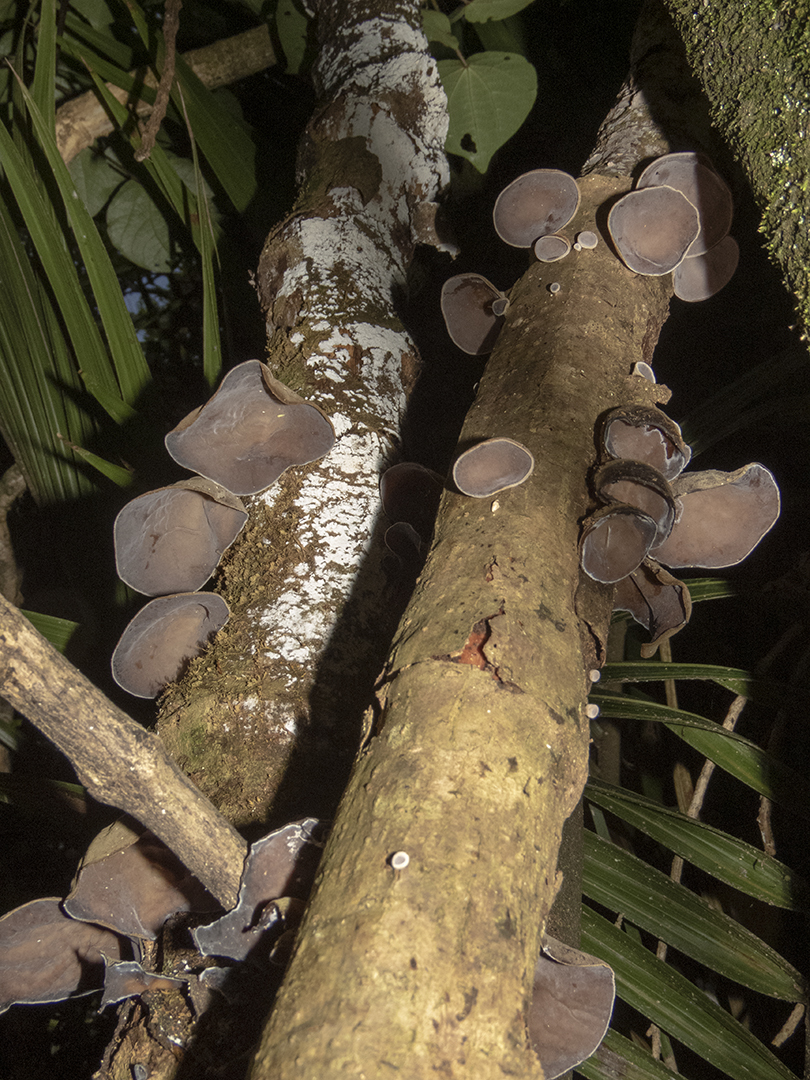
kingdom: Fungi
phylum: Basidiomycota
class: Agaricomycetes
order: Auriculariales
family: Auriculariaceae
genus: Auricularia
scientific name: Auricularia cornea
